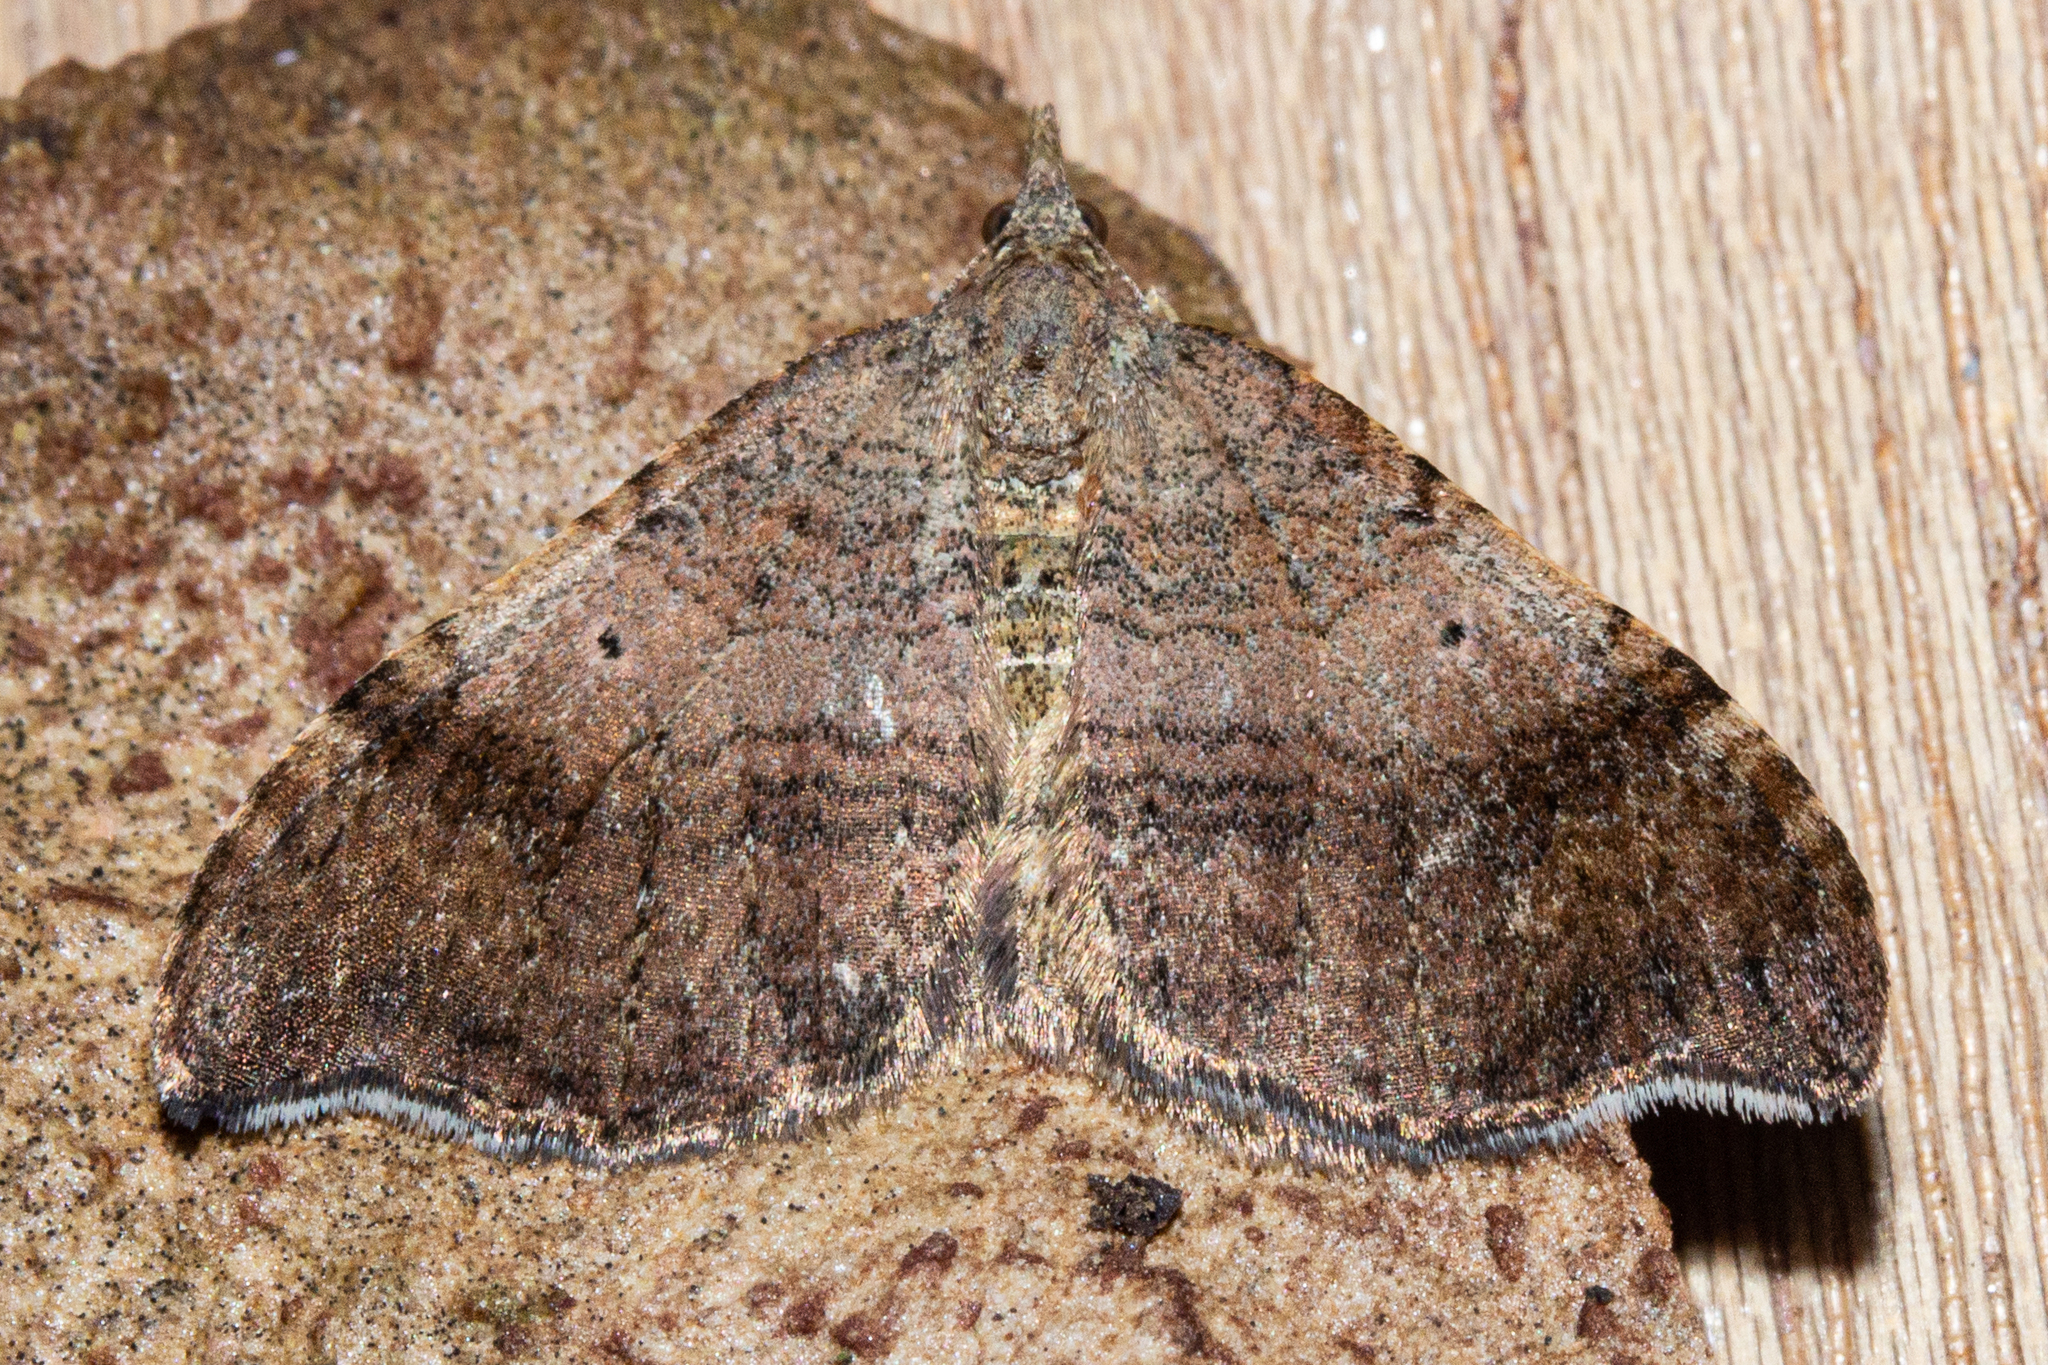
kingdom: Animalia
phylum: Arthropoda
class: Insecta
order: Lepidoptera
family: Geometridae
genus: Homodotis
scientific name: Homodotis megaspilata
